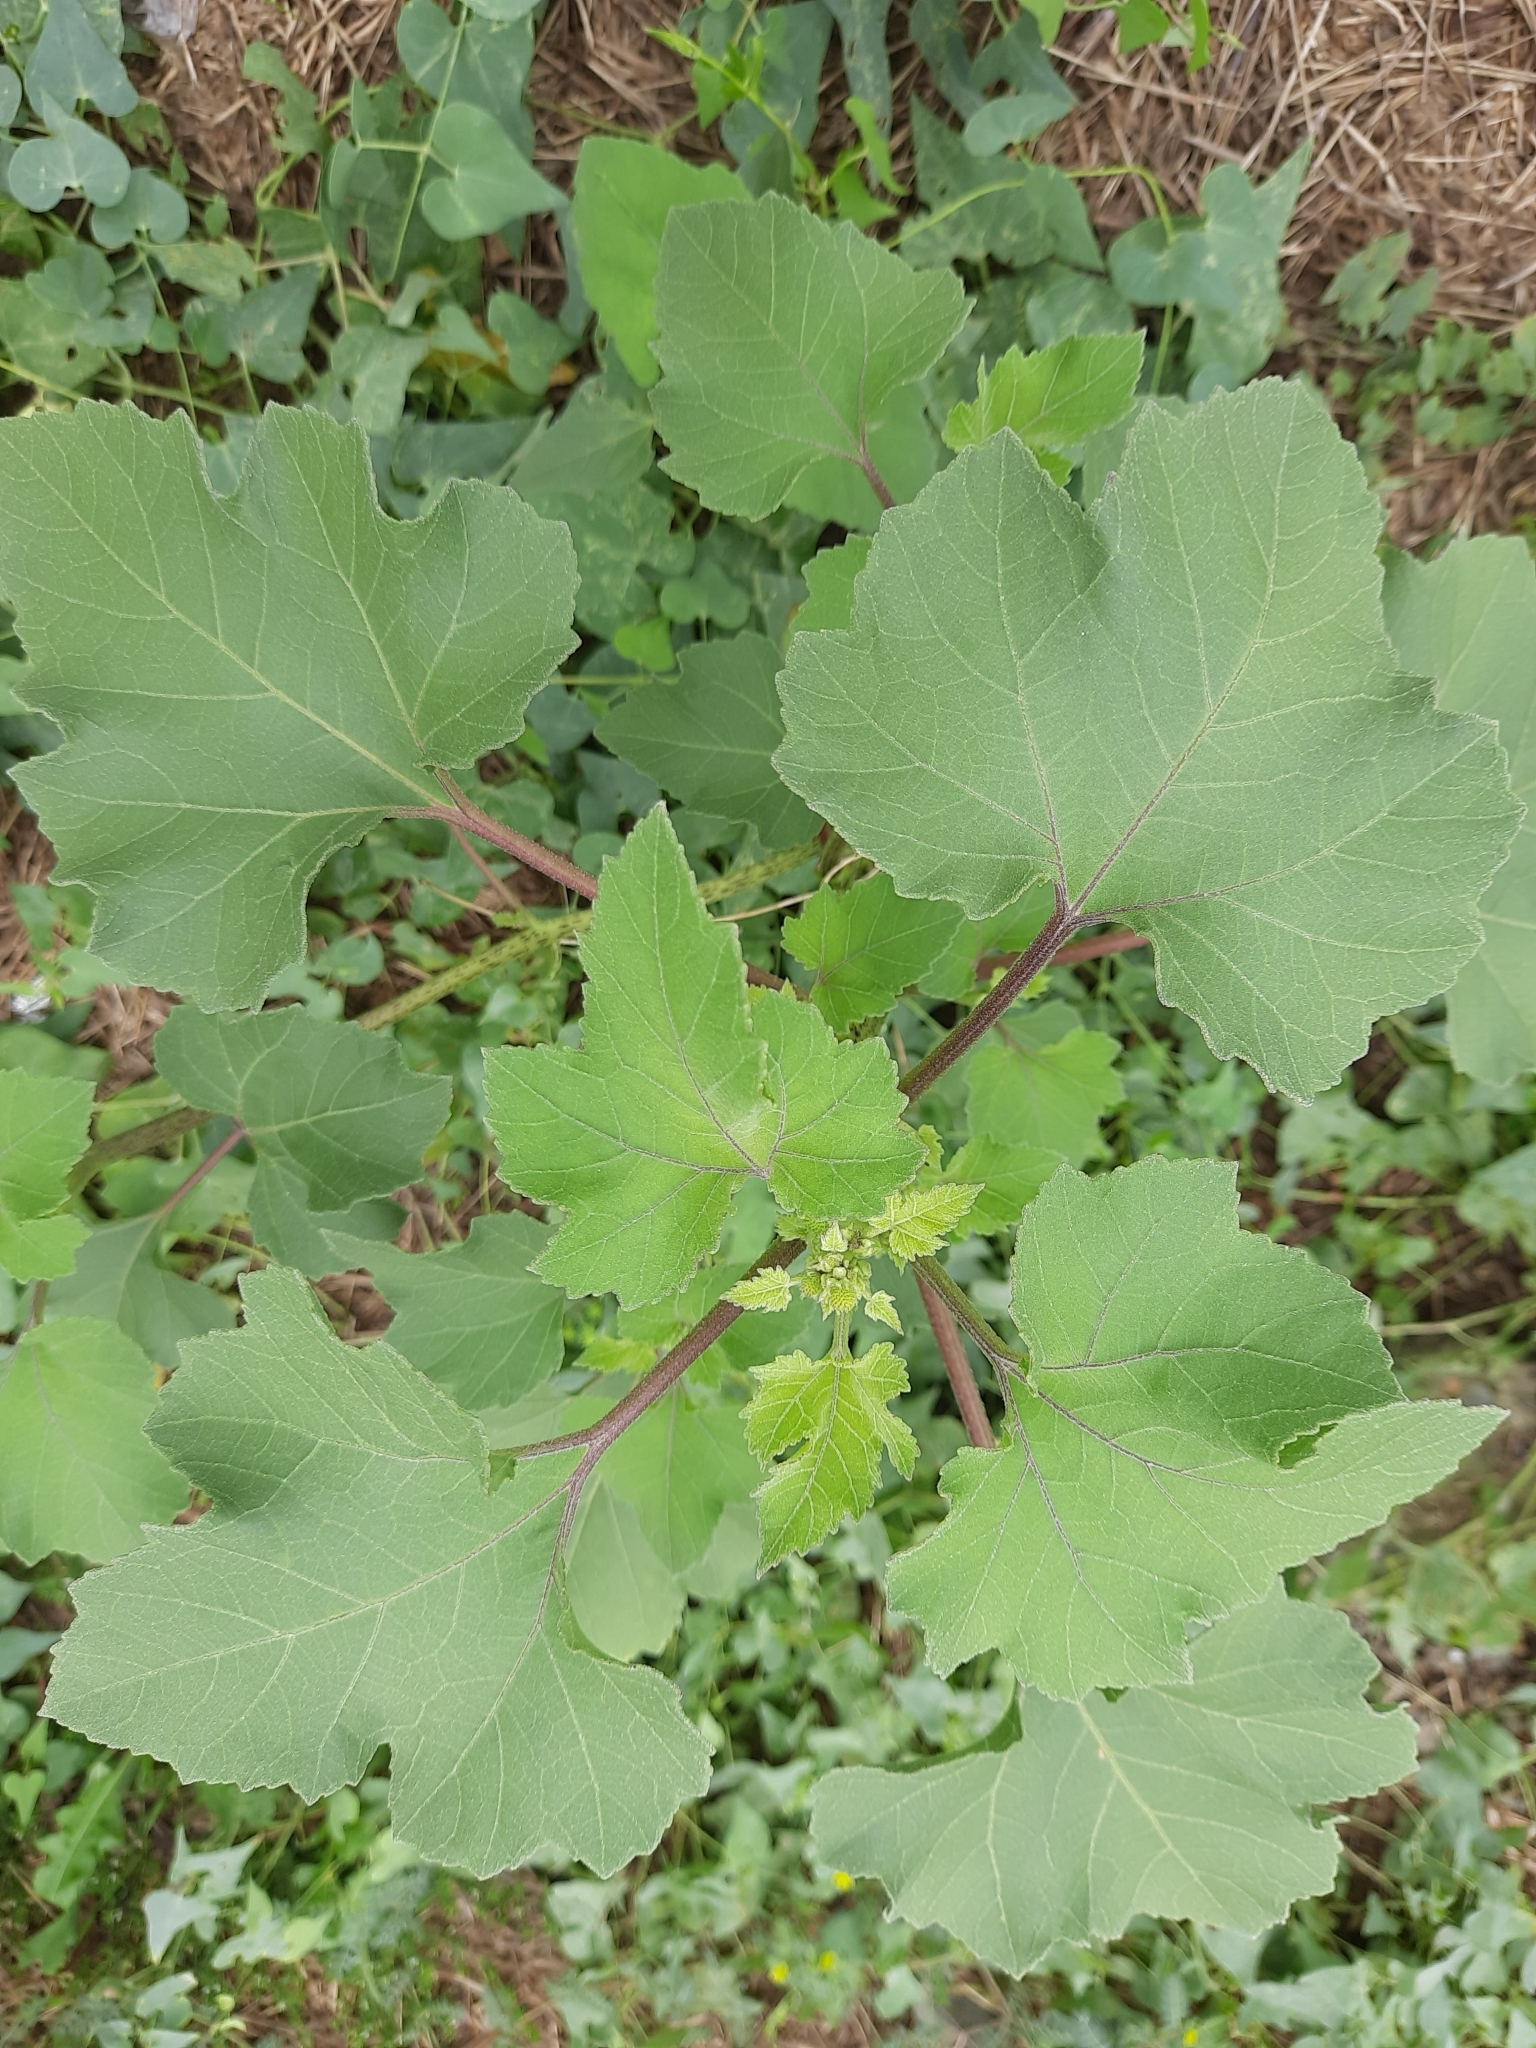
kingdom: Plantae
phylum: Tracheophyta
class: Magnoliopsida
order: Asterales
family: Asteraceae
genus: Xanthium
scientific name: Xanthium orientale
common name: Californian burr
